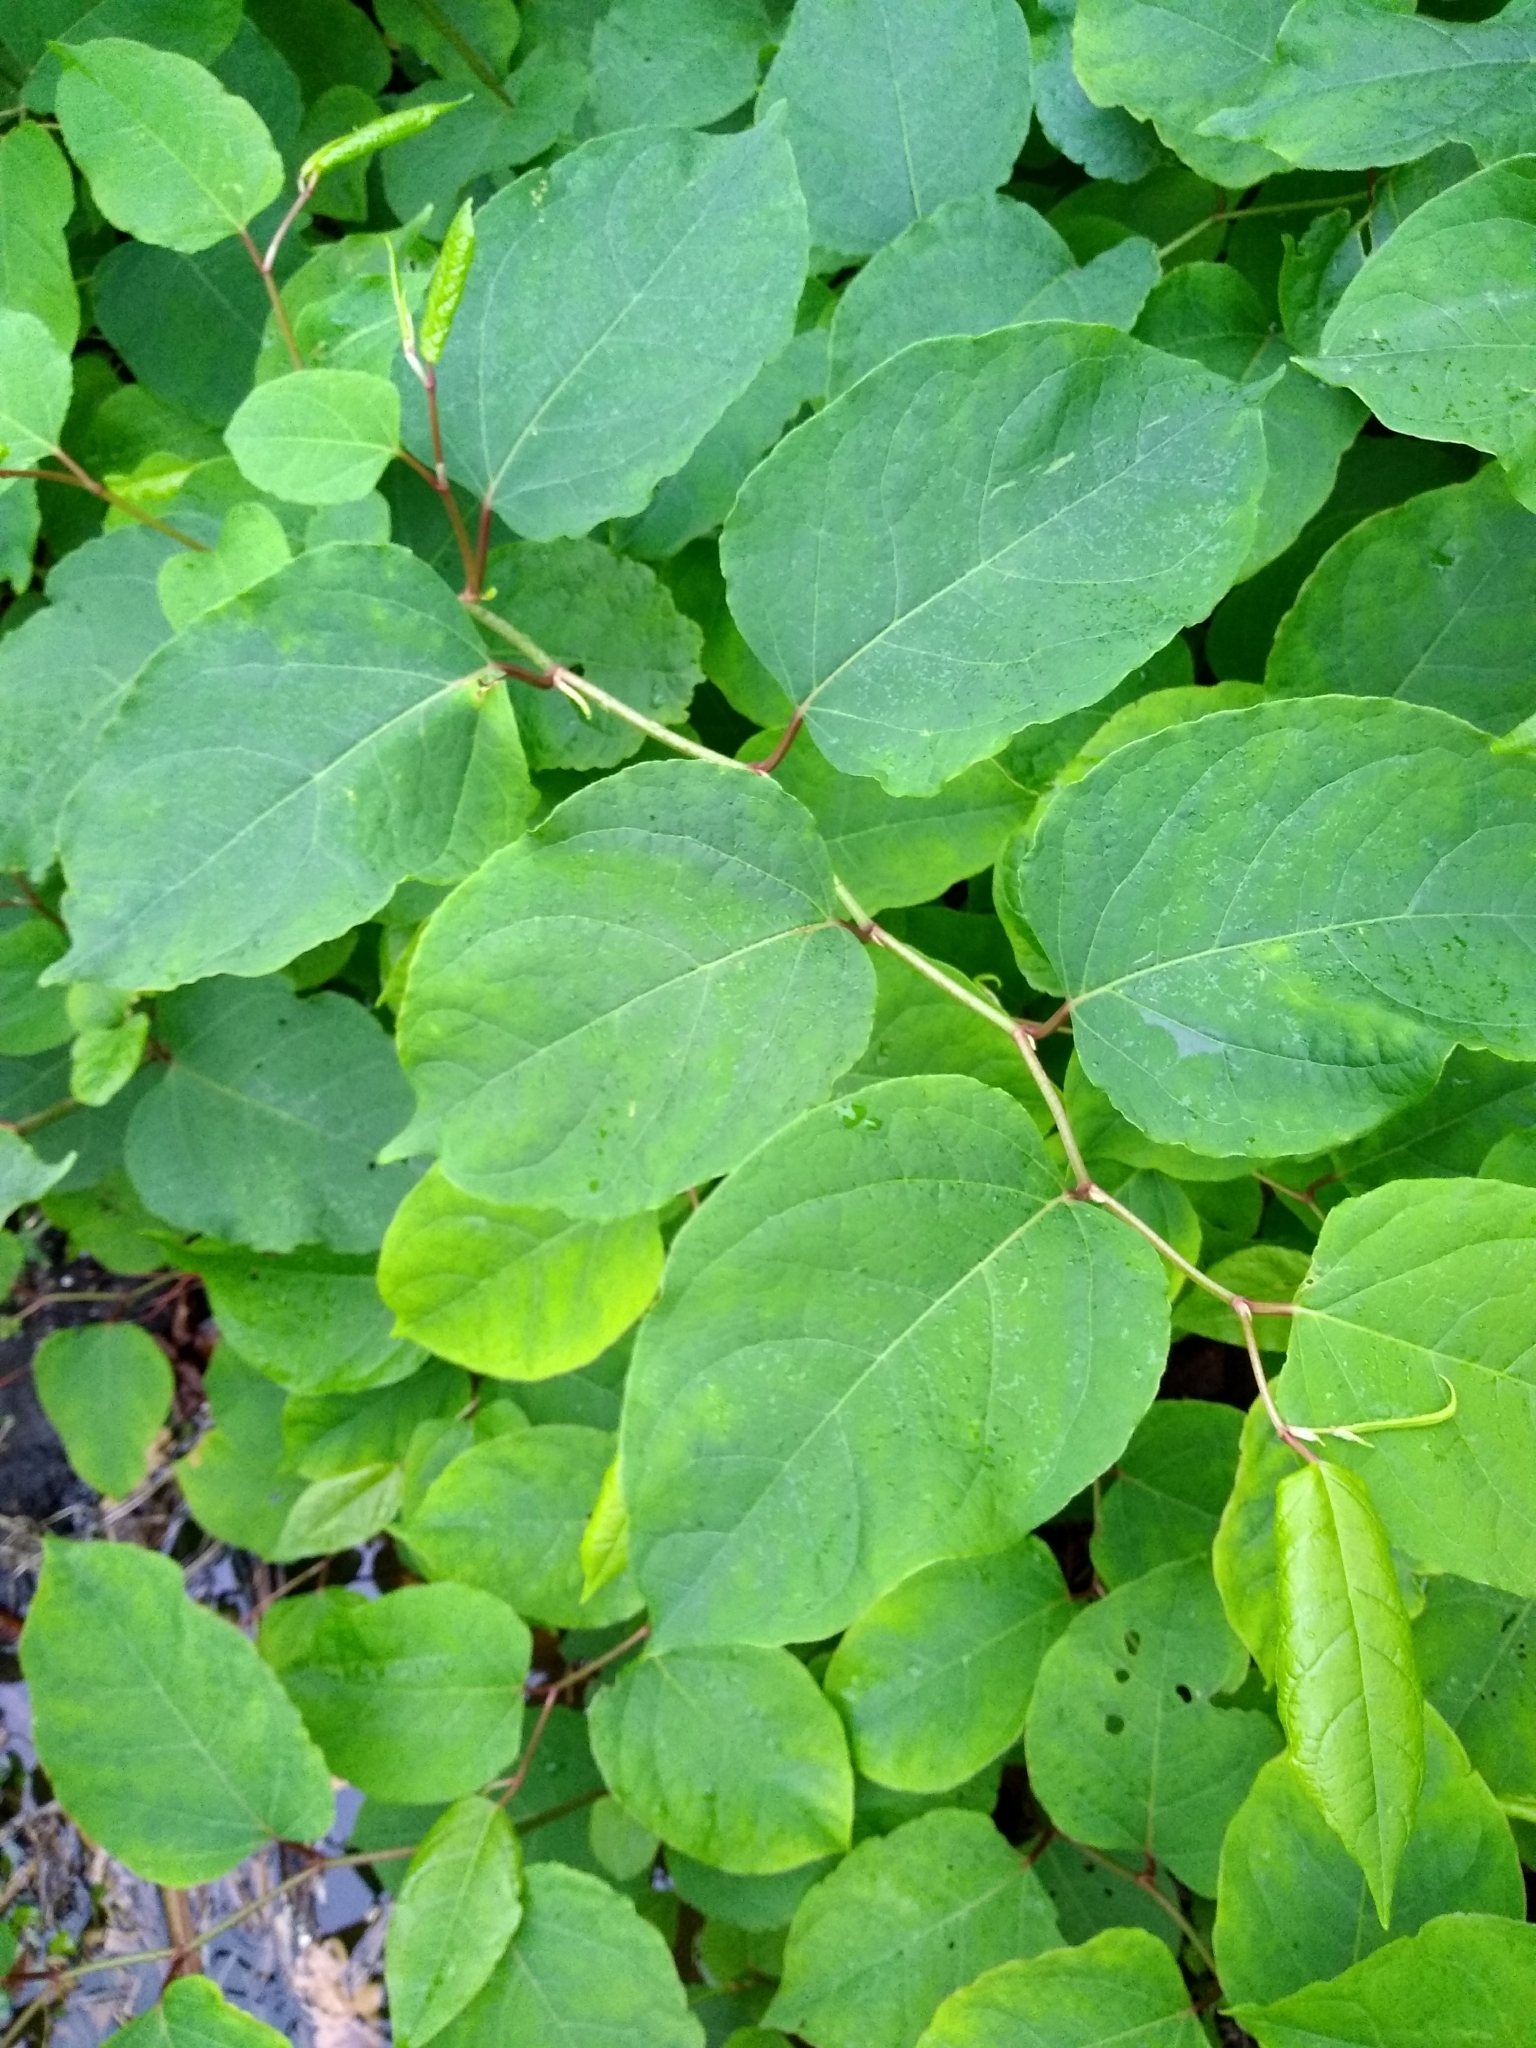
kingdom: Plantae
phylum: Tracheophyta
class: Magnoliopsida
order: Caryophyllales
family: Polygonaceae
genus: Reynoutria
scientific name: Reynoutria japonica
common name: Japanese knotweed
